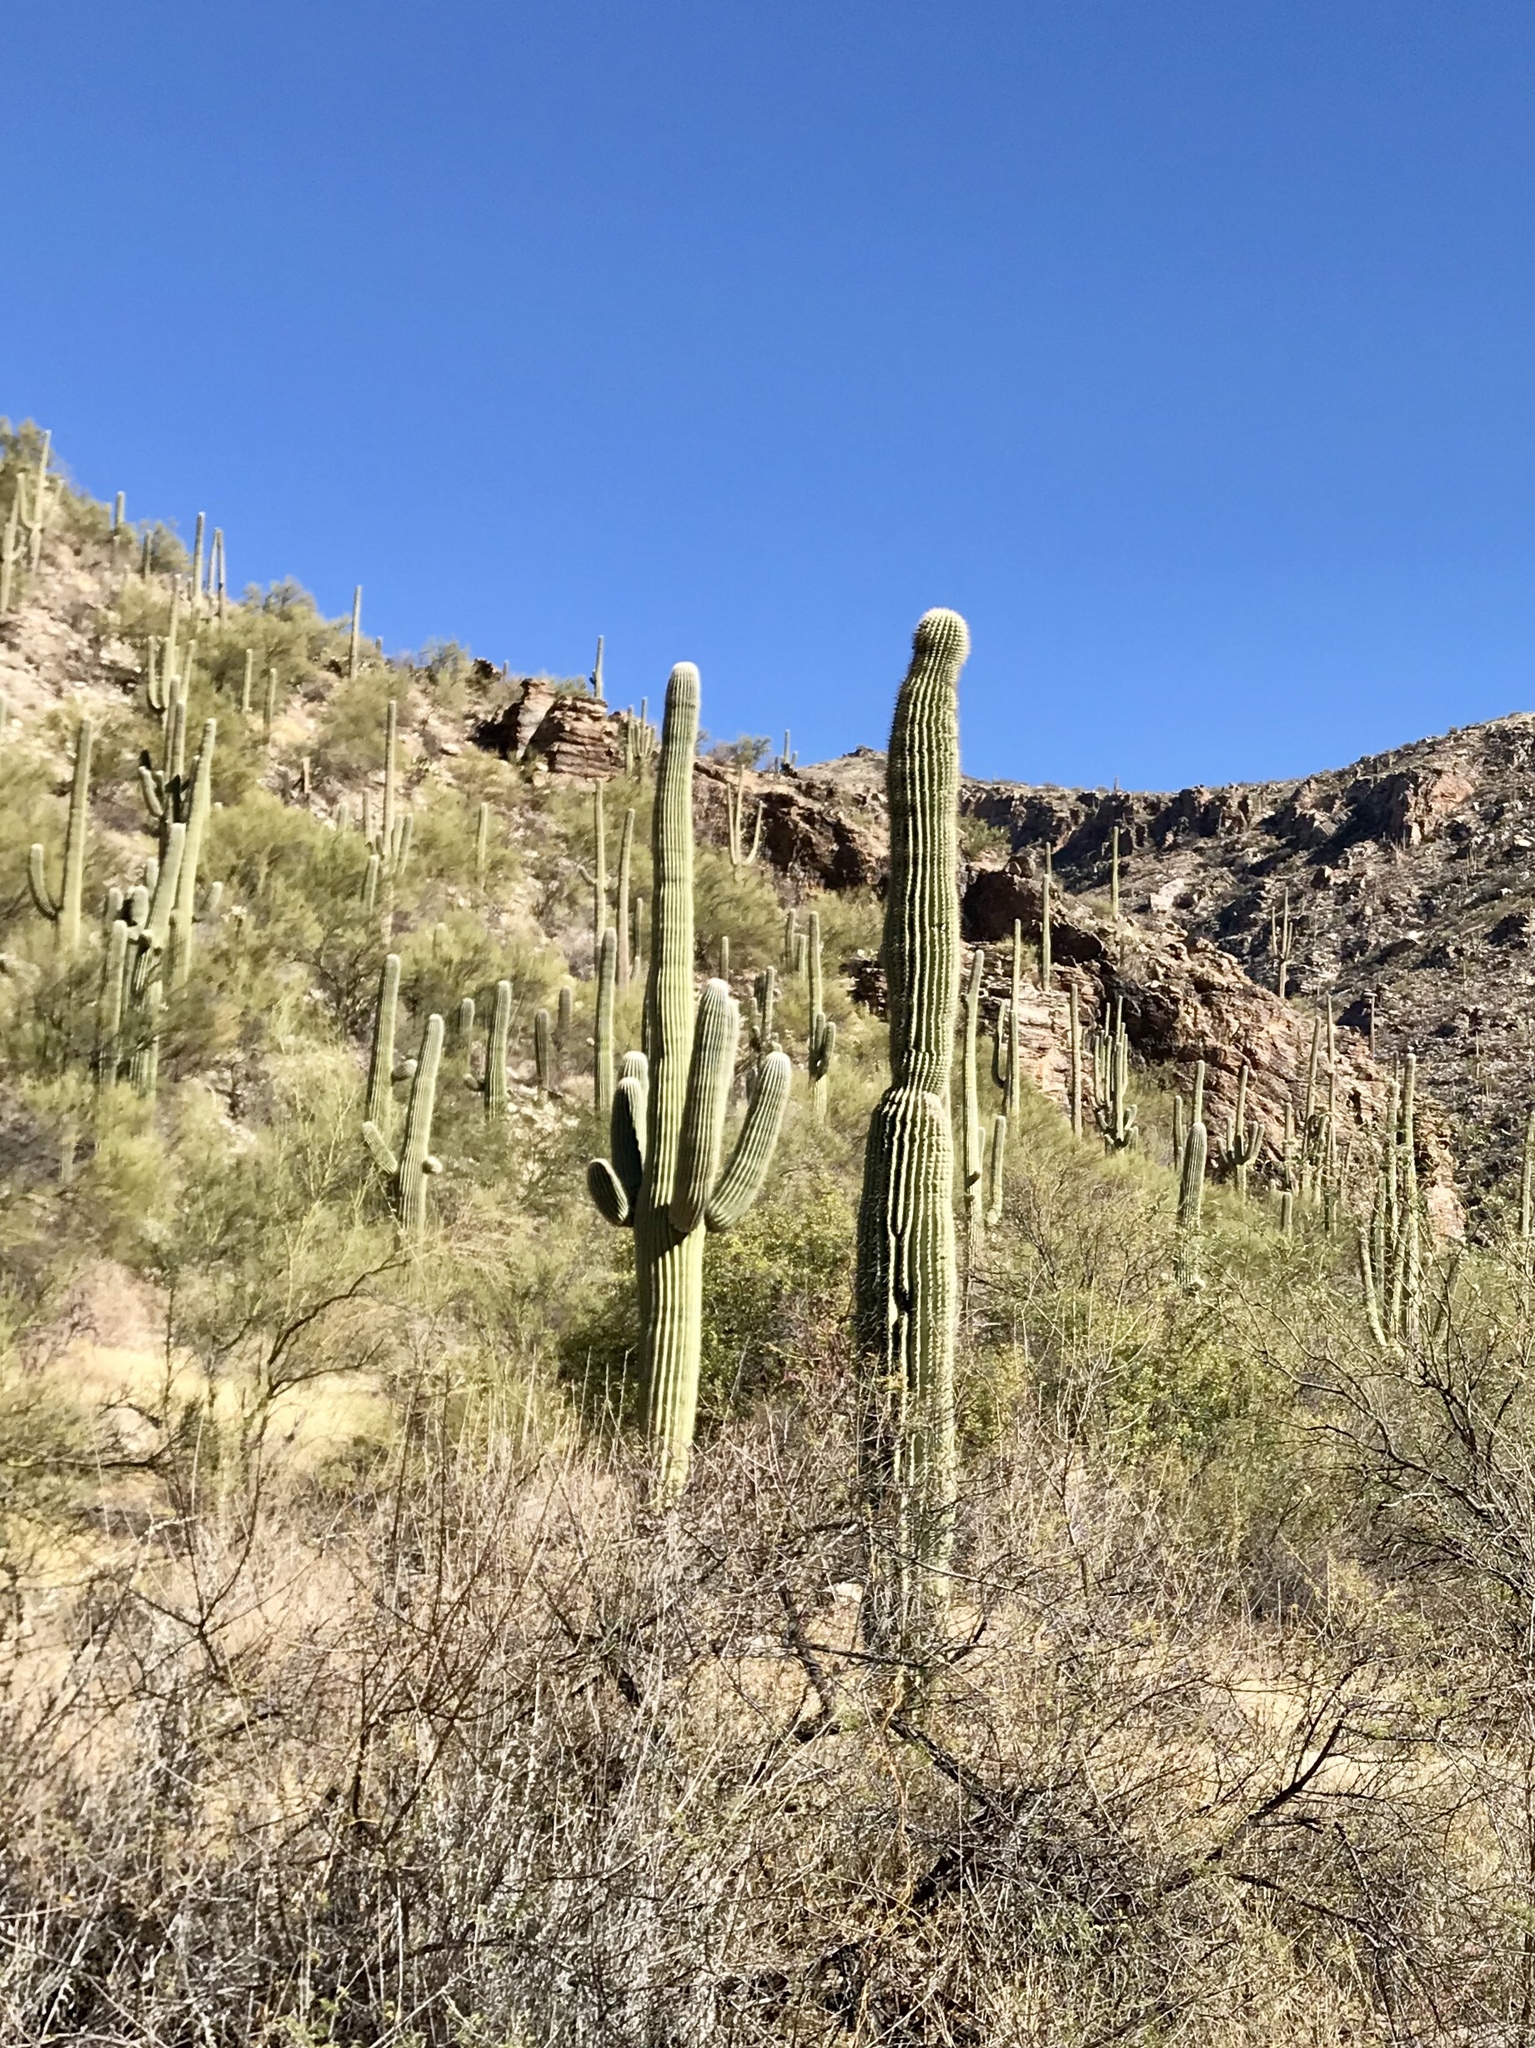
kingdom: Plantae
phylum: Tracheophyta
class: Magnoliopsida
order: Caryophyllales
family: Cactaceae
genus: Carnegiea
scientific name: Carnegiea gigantea
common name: Saguaro
